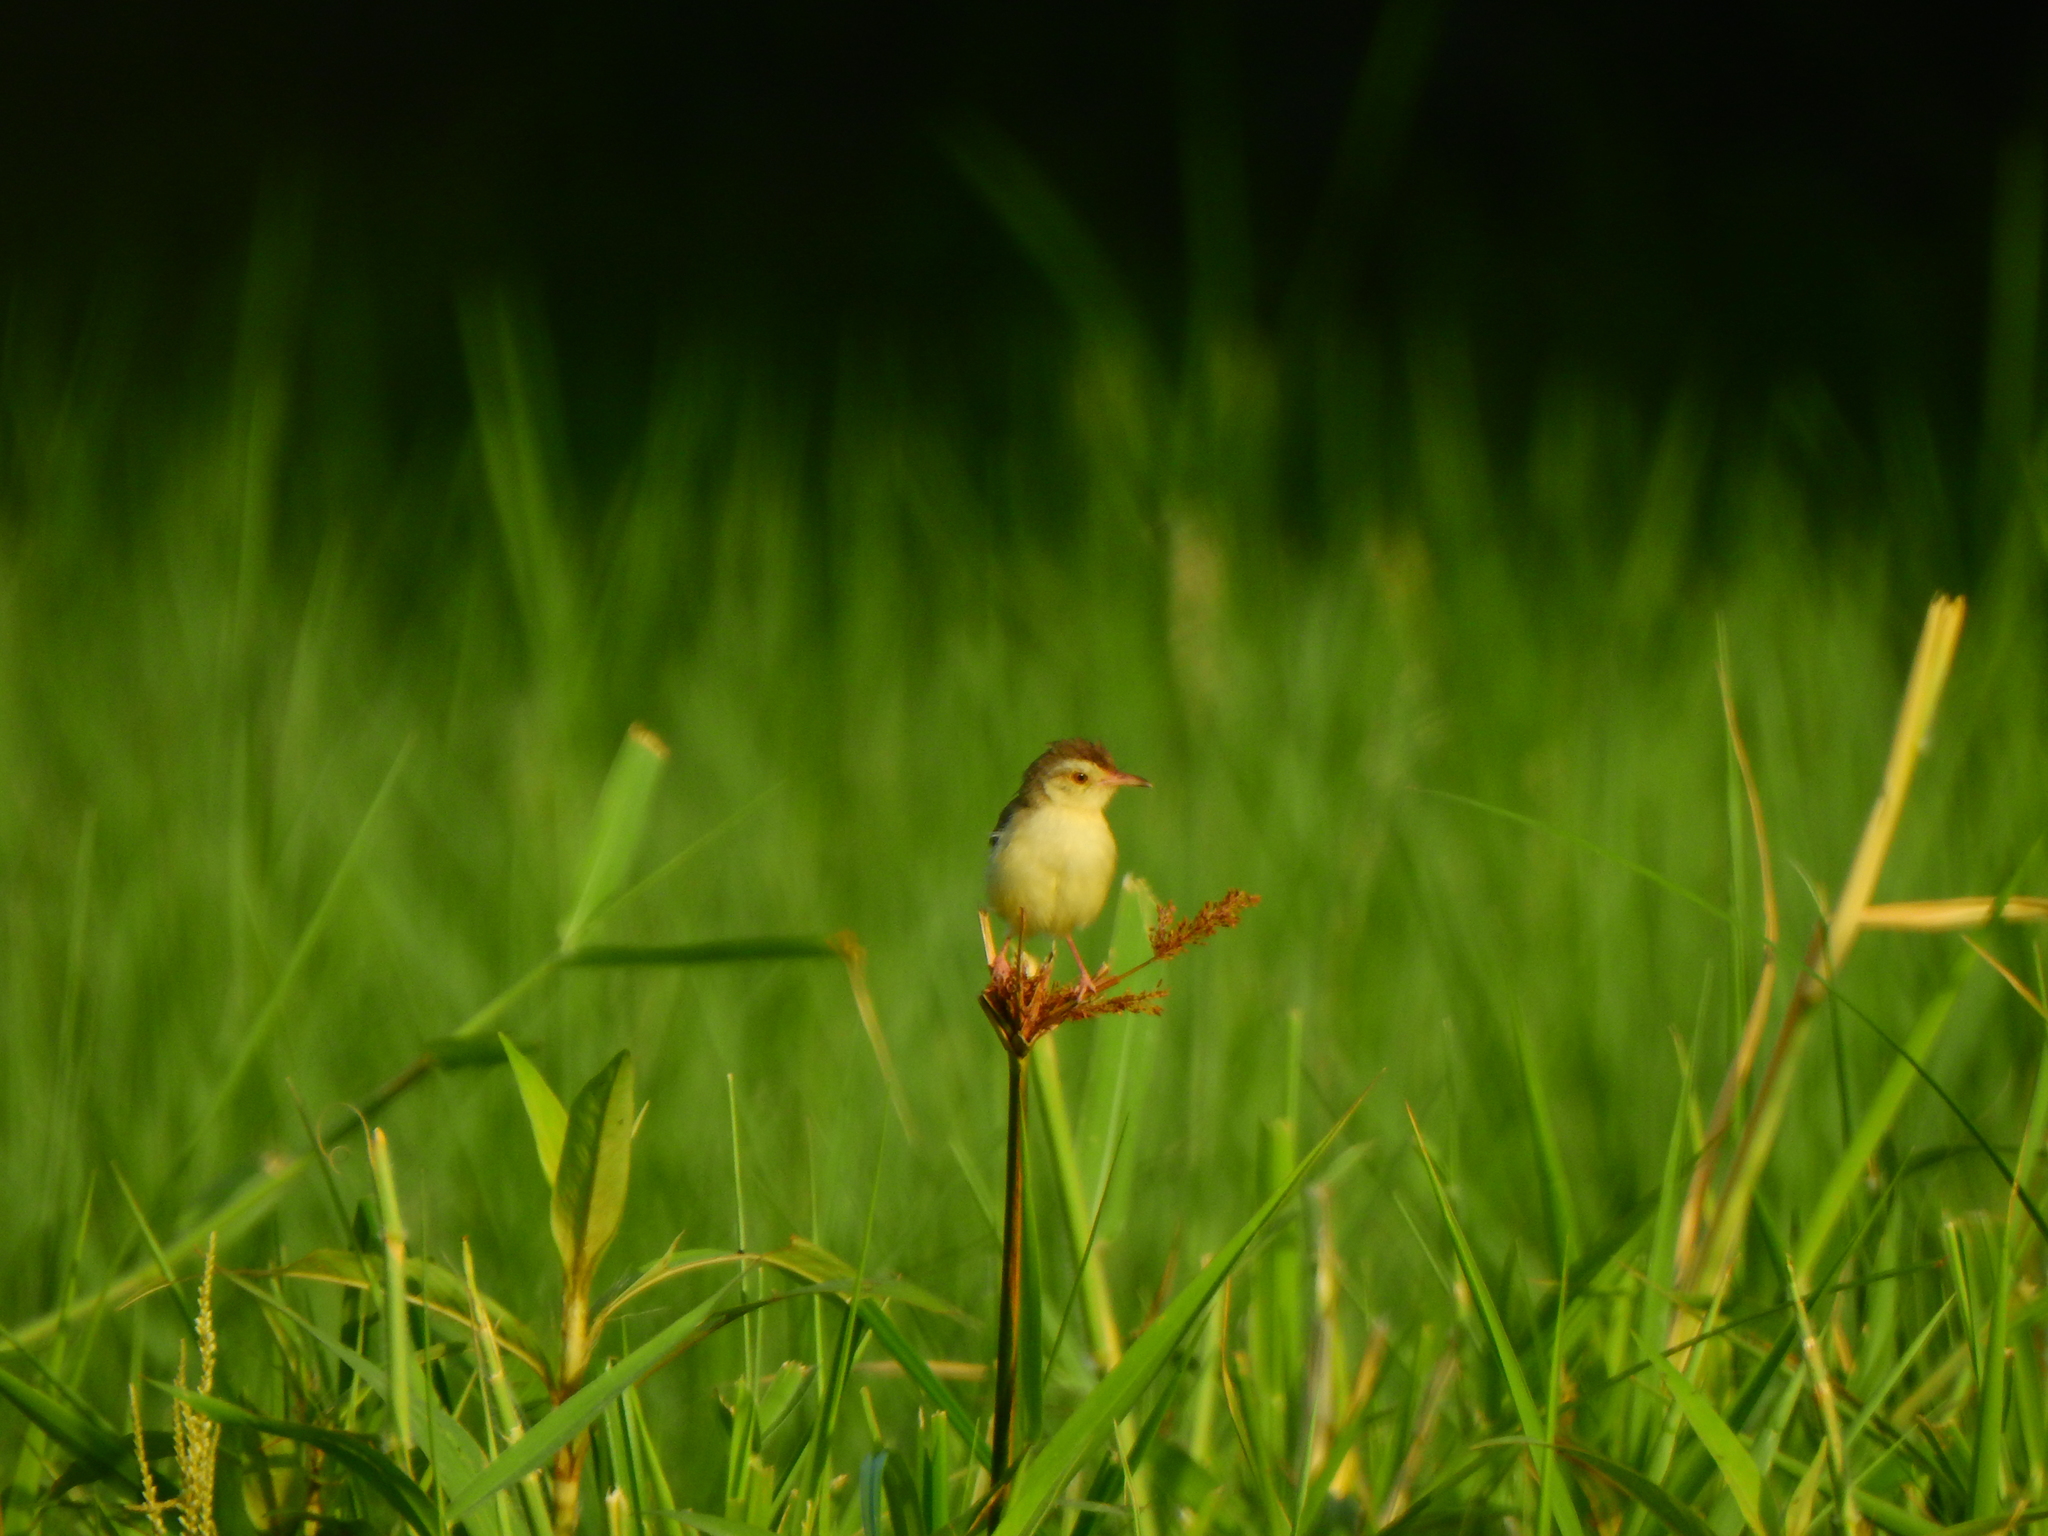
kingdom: Animalia
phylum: Chordata
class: Aves
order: Passeriformes
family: Cisticolidae
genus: Prinia
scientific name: Prinia inornata
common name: Plain prinia
